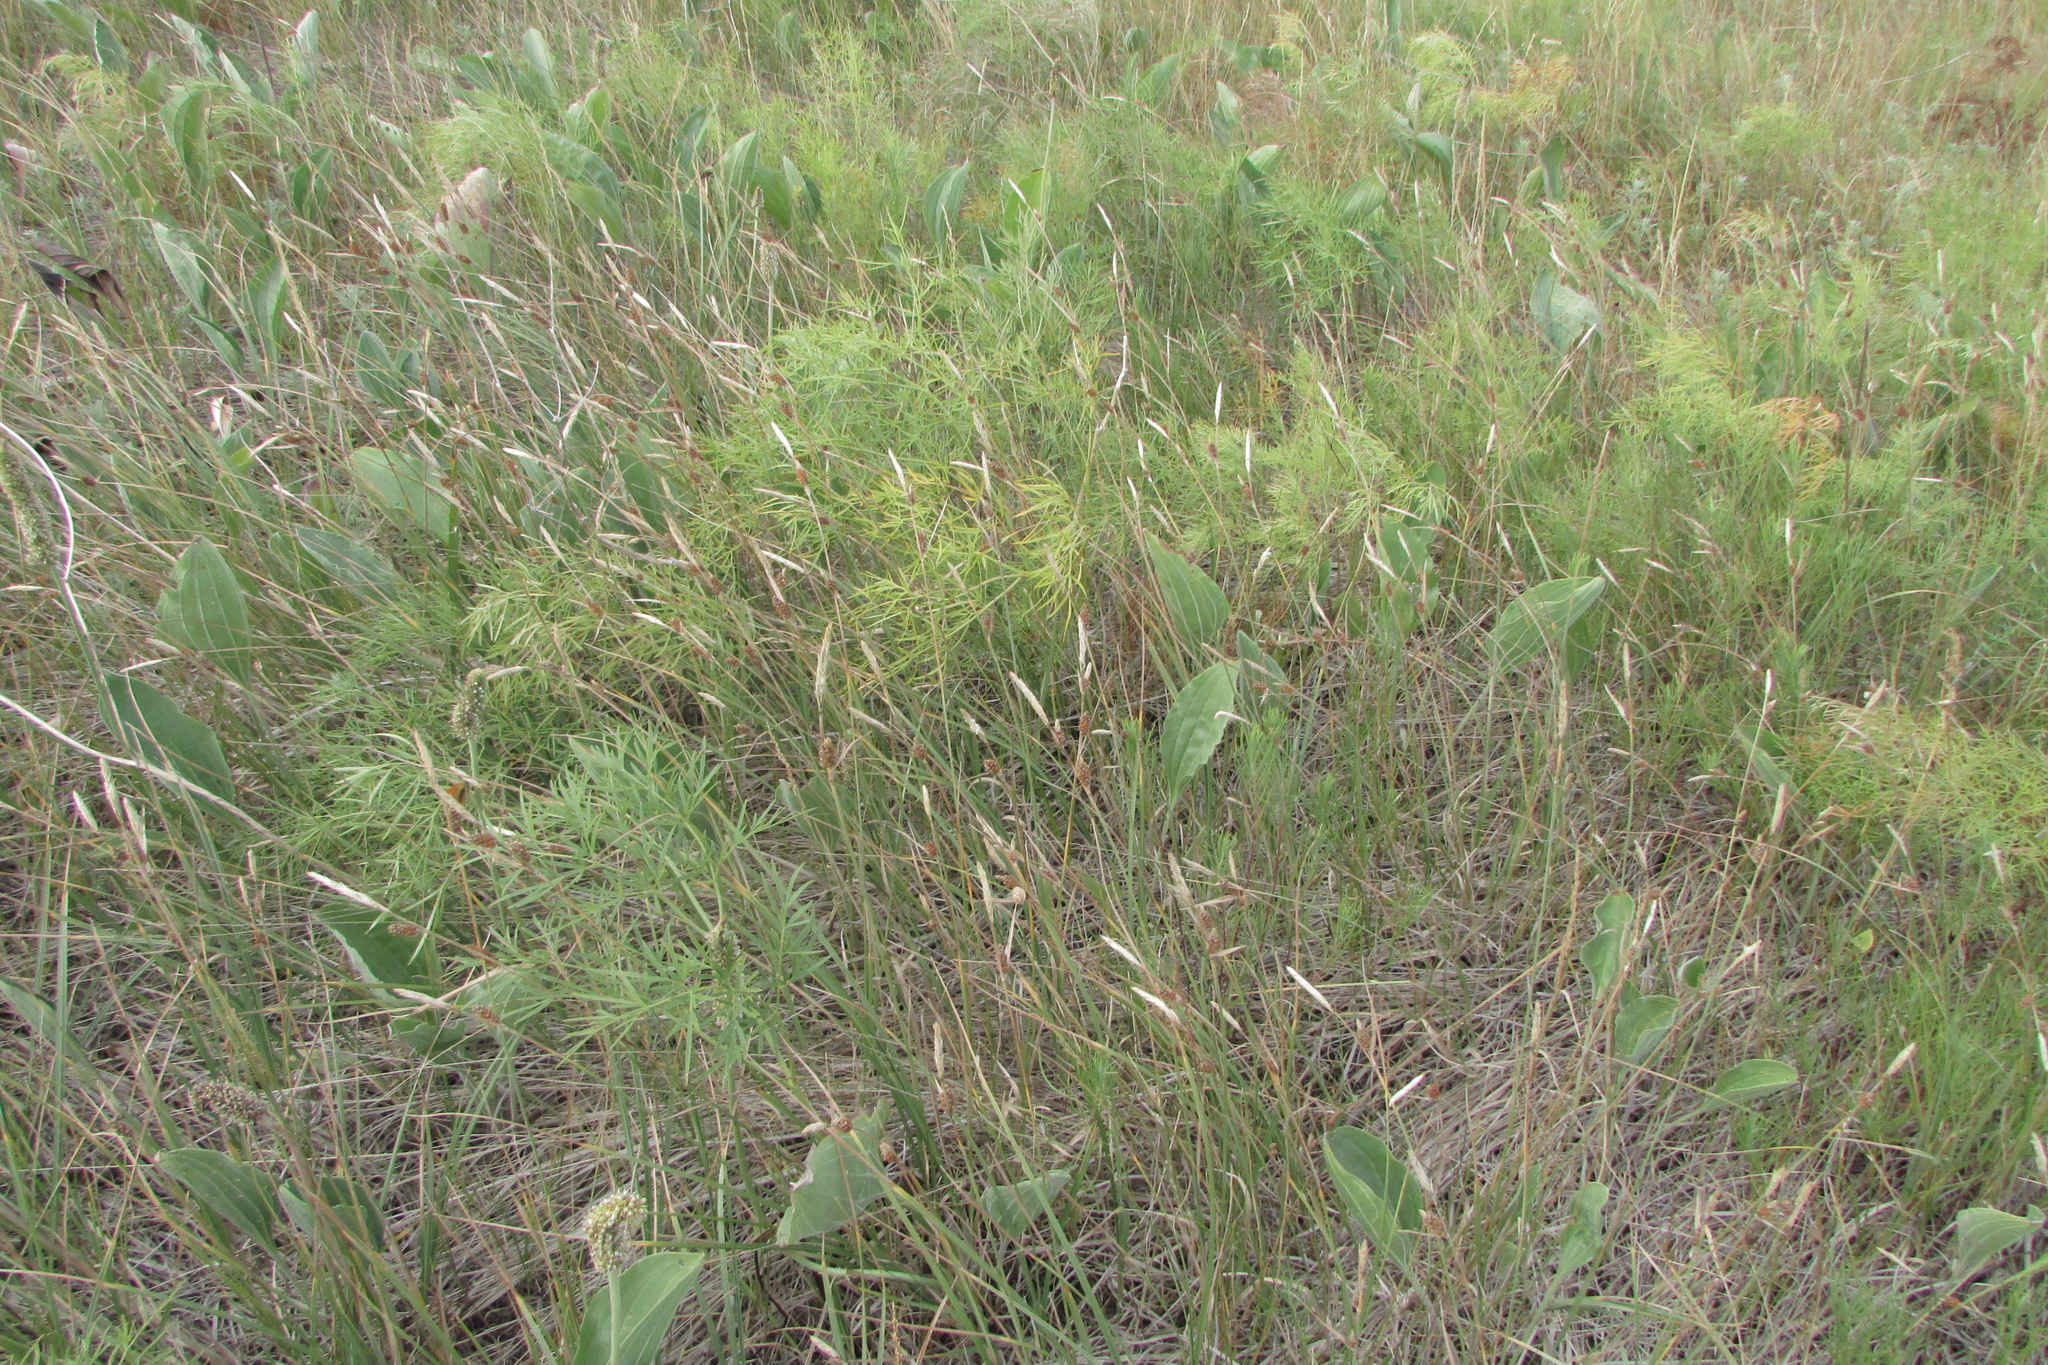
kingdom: Plantae
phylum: Tracheophyta
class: Liliopsida
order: Poales
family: Cyperaceae
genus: Carex
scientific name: Carex tomentosa
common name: Downy-fruited sedge
